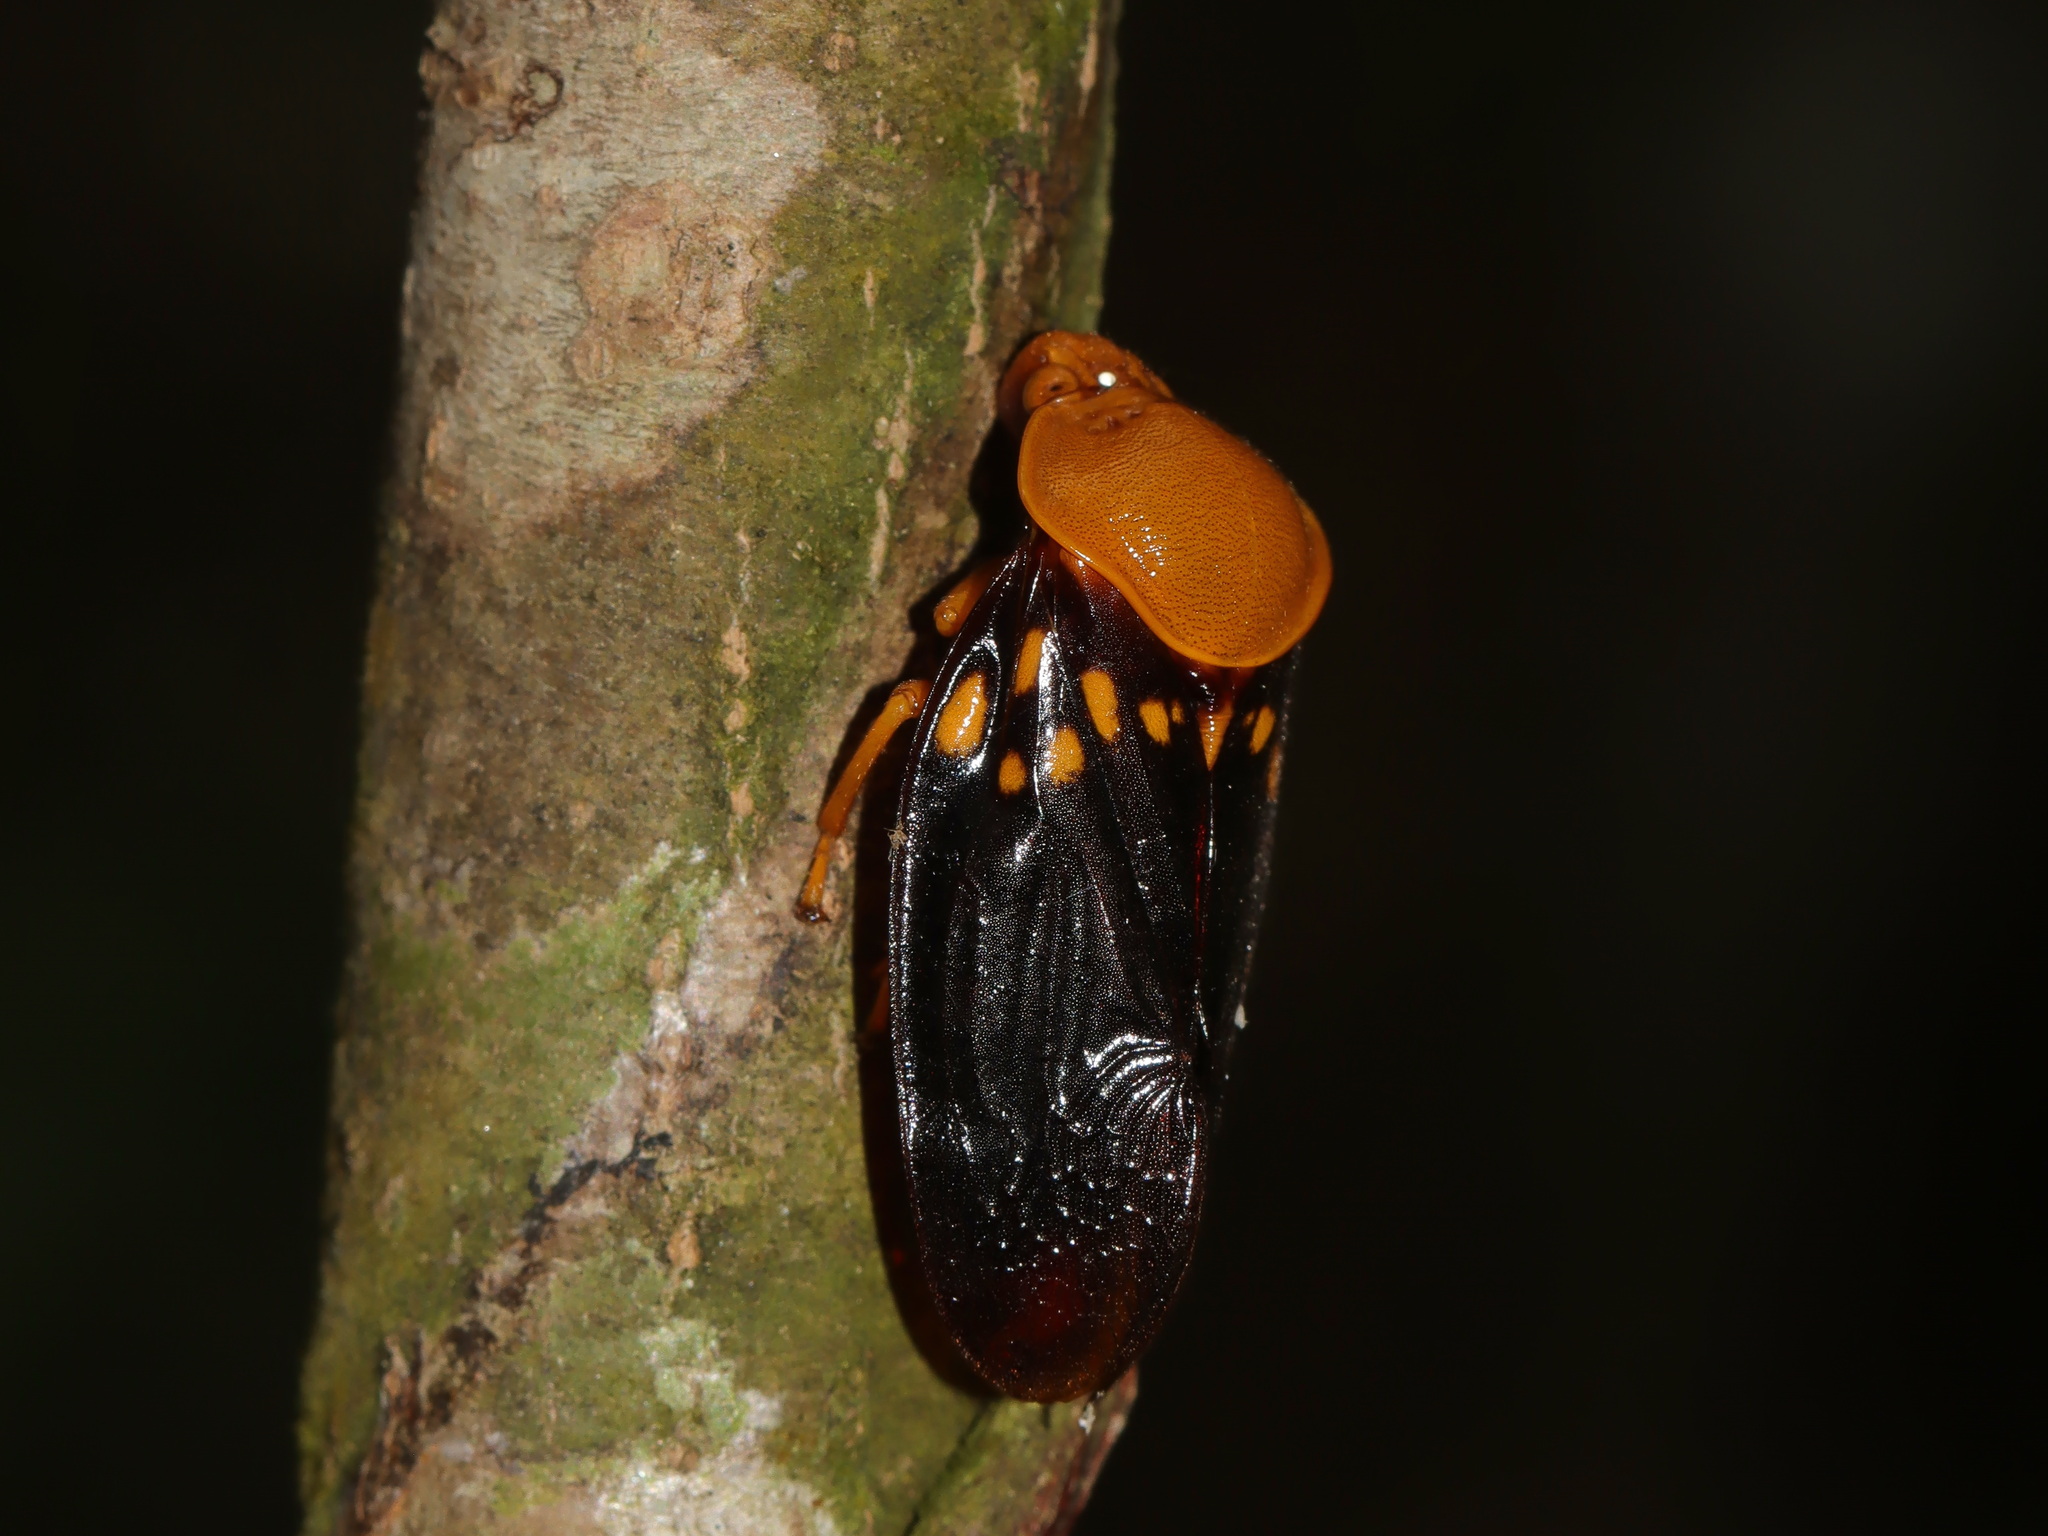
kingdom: Animalia
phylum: Arthropoda
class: Insecta
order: Hemiptera
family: Cercopidae
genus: Suracarta
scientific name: Suracarta tricolor
